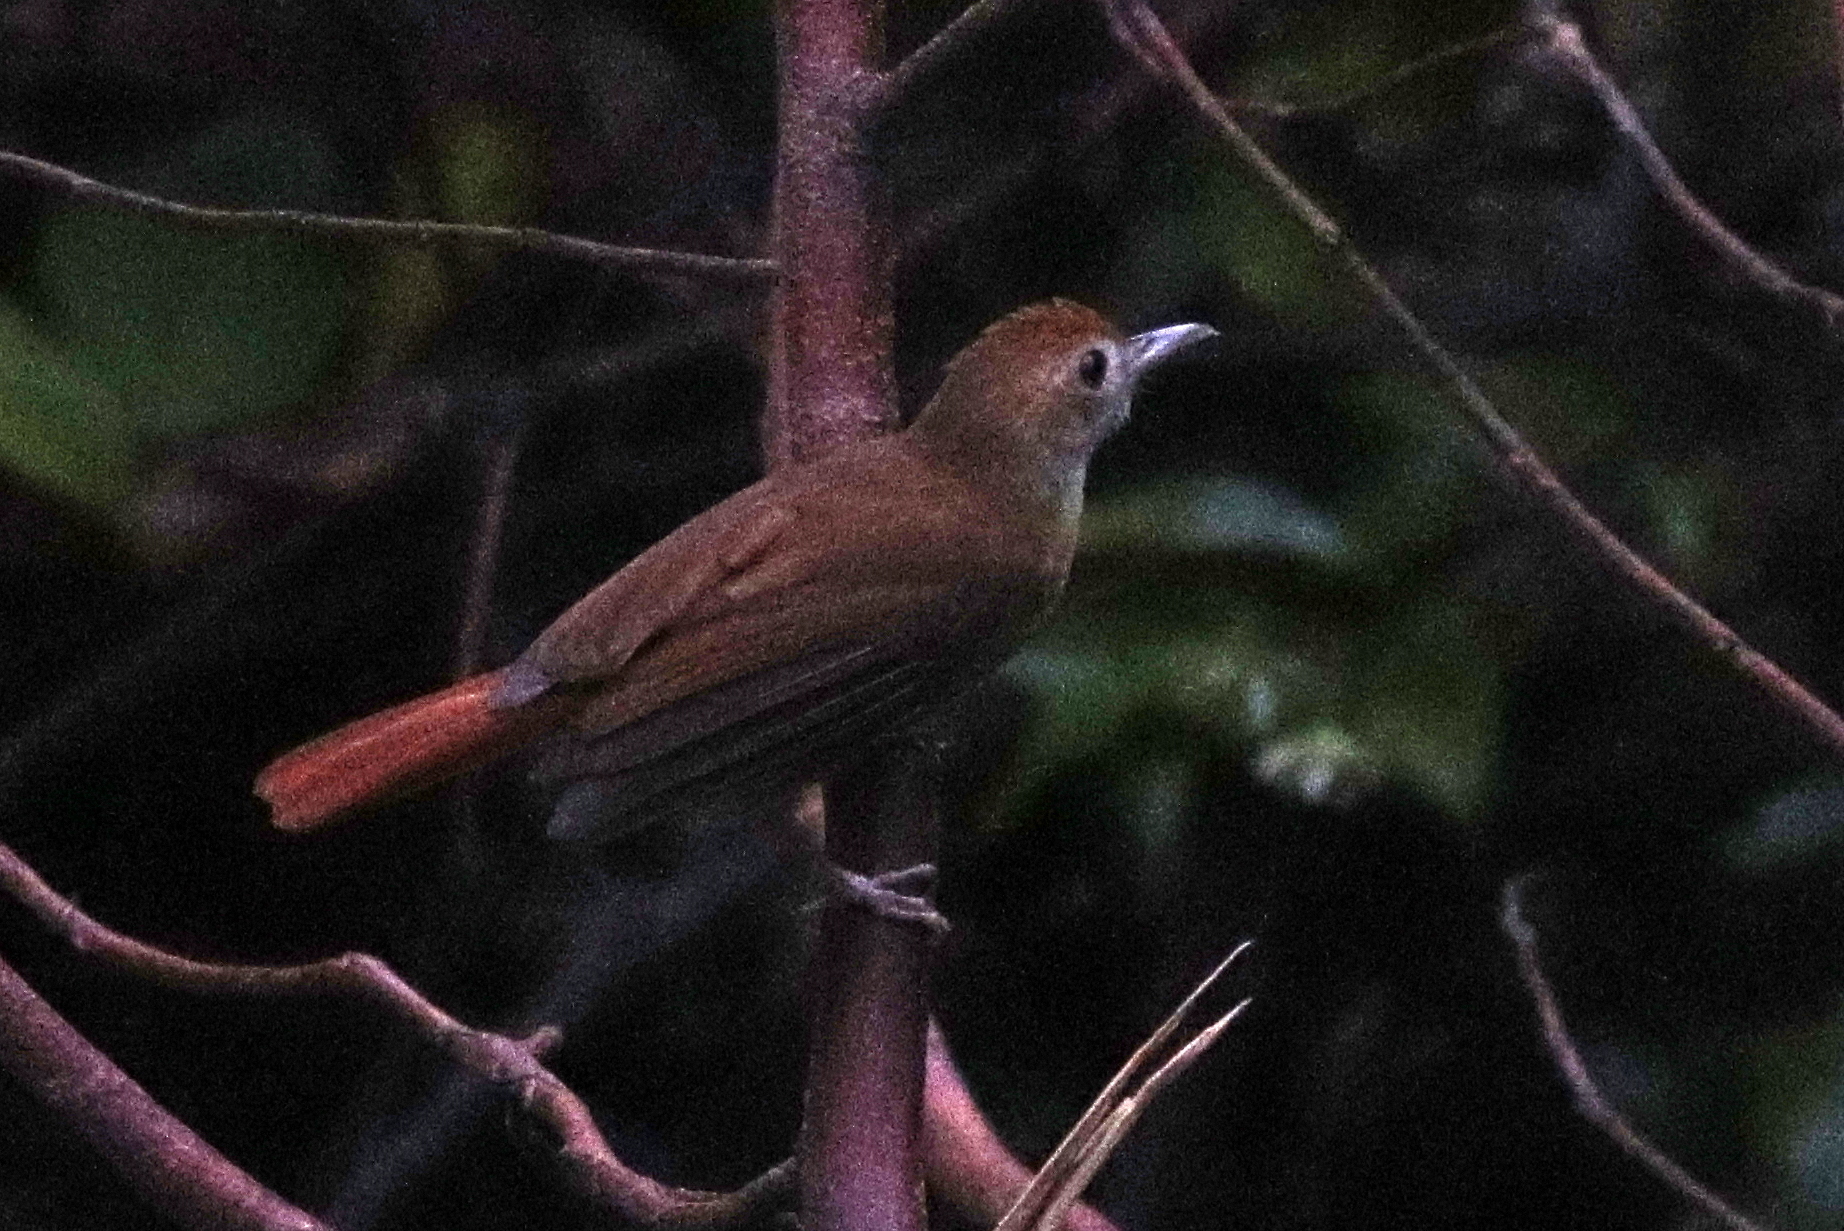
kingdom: Animalia
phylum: Chordata
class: Aves
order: Passeriformes
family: Pellorneidae
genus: Trichastoma
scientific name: Trichastoma bicolor
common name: Ferruginous babbler
